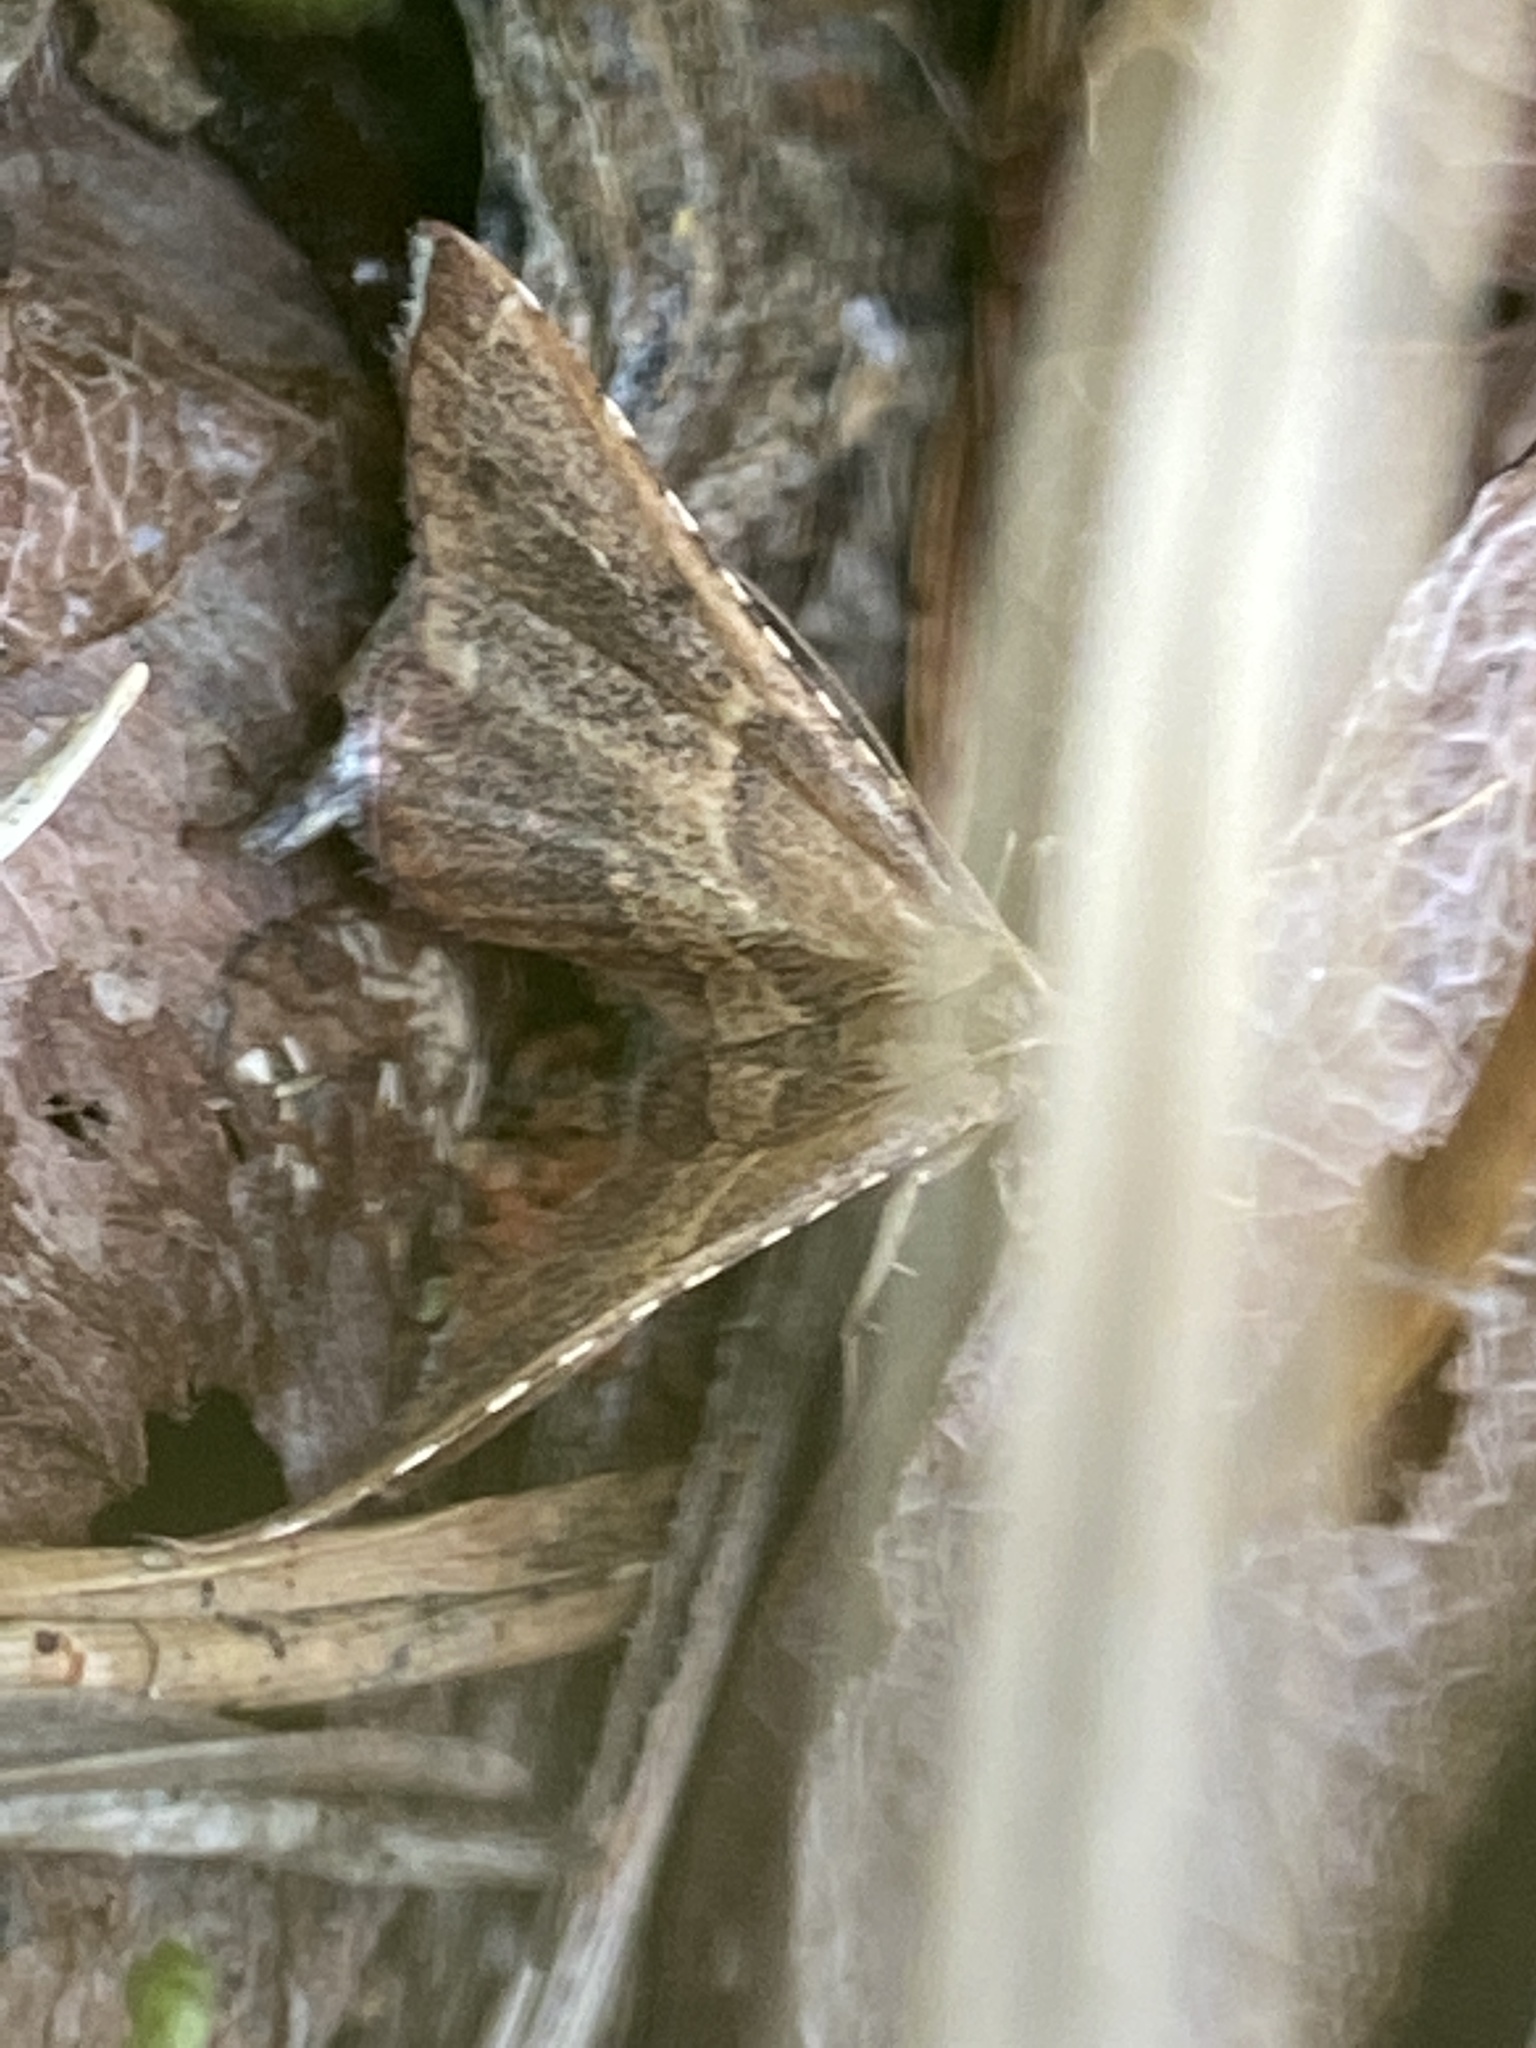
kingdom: Animalia
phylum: Arthropoda
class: Insecta
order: Lepidoptera
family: Pyralidae
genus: Endotricha
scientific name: Endotricha flammealis
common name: Rosy tabby
